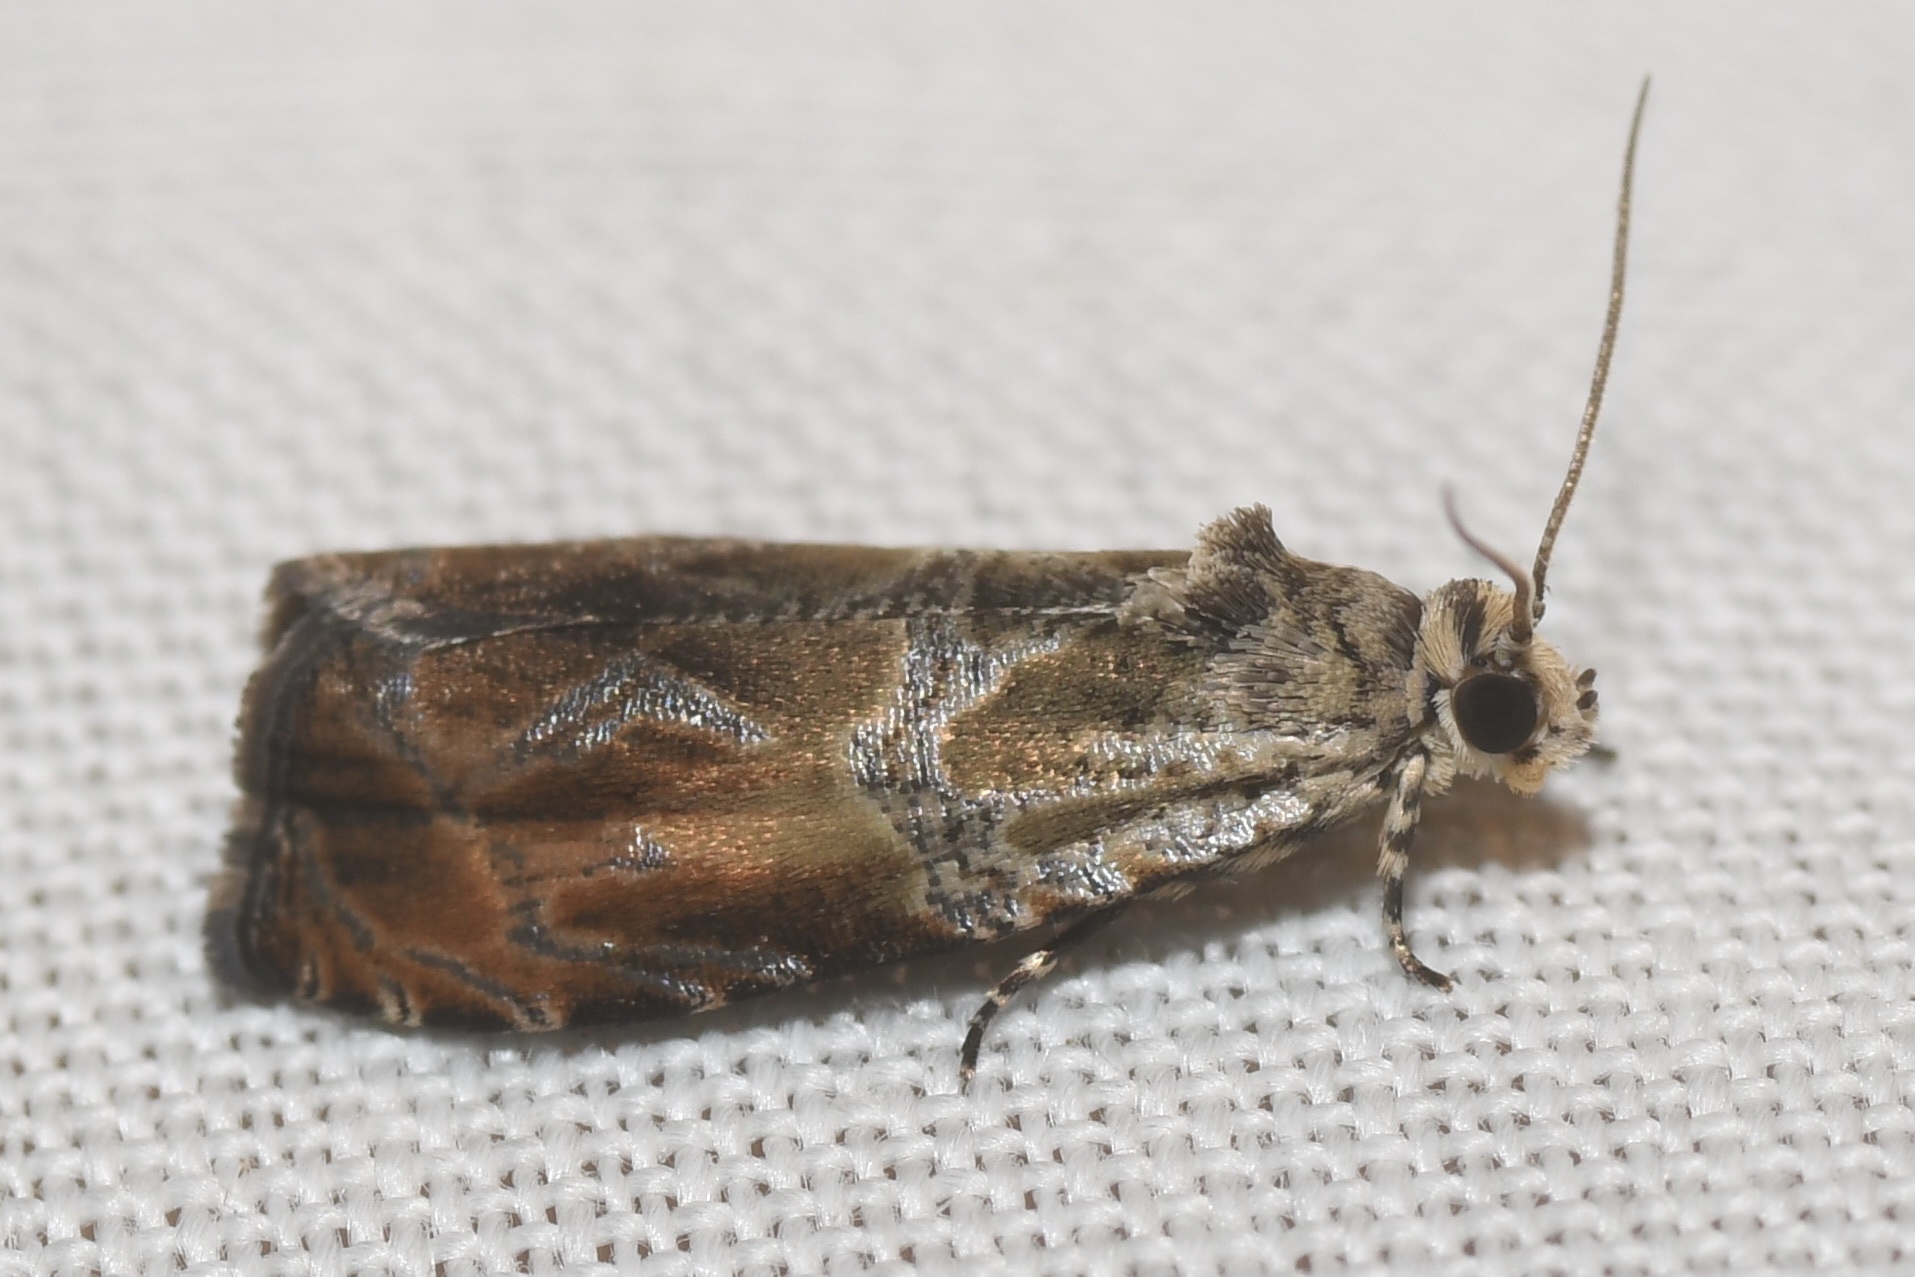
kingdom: Animalia
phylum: Arthropoda
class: Insecta
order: Lepidoptera
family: Tortricidae
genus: Olethreutes
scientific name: Olethreutes fagigemmeana
